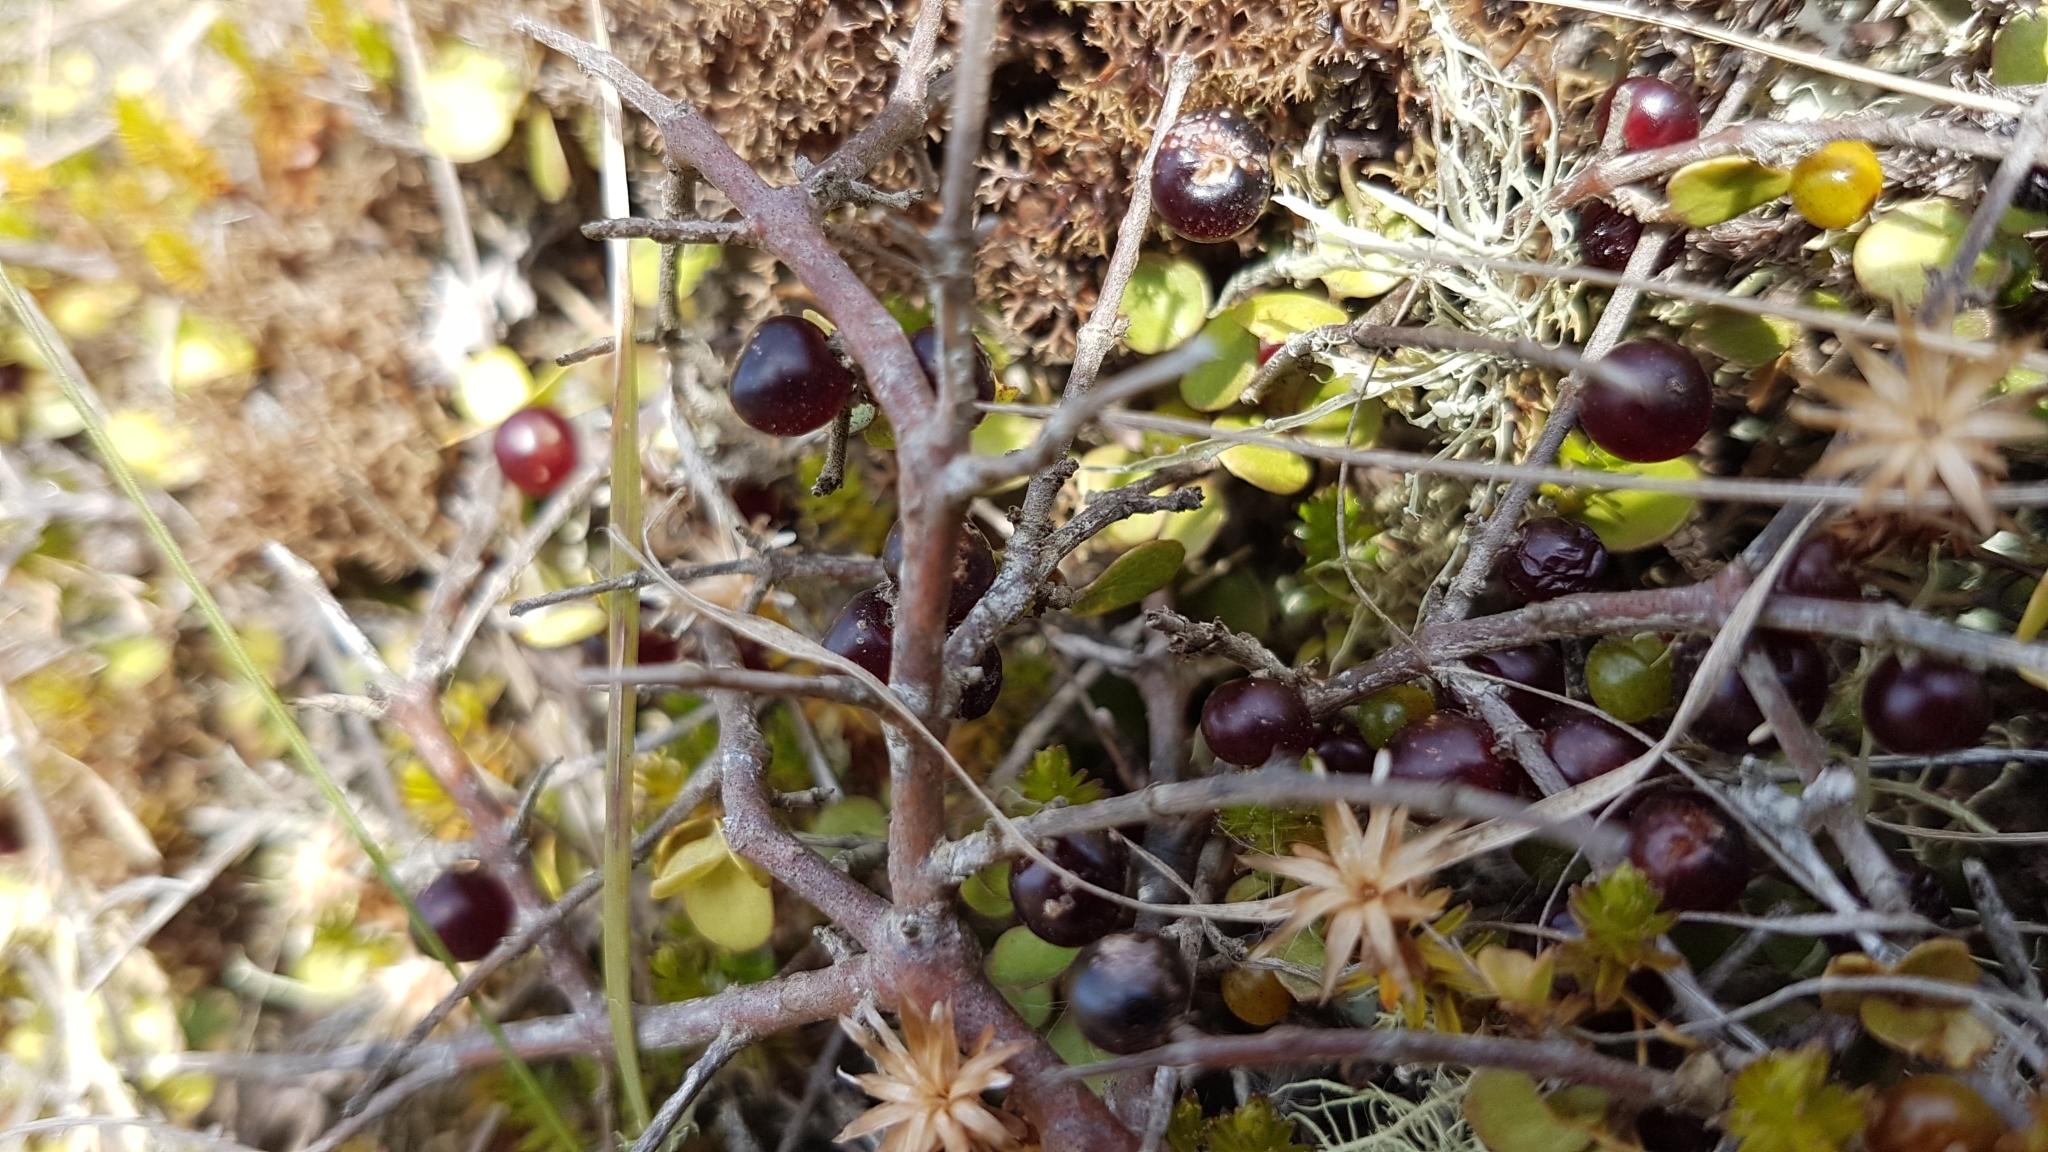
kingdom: Plantae
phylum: Tracheophyta
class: Magnoliopsida
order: Gentianales
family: Rubiaceae
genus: Coprosma
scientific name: Coprosma rhamnoides
